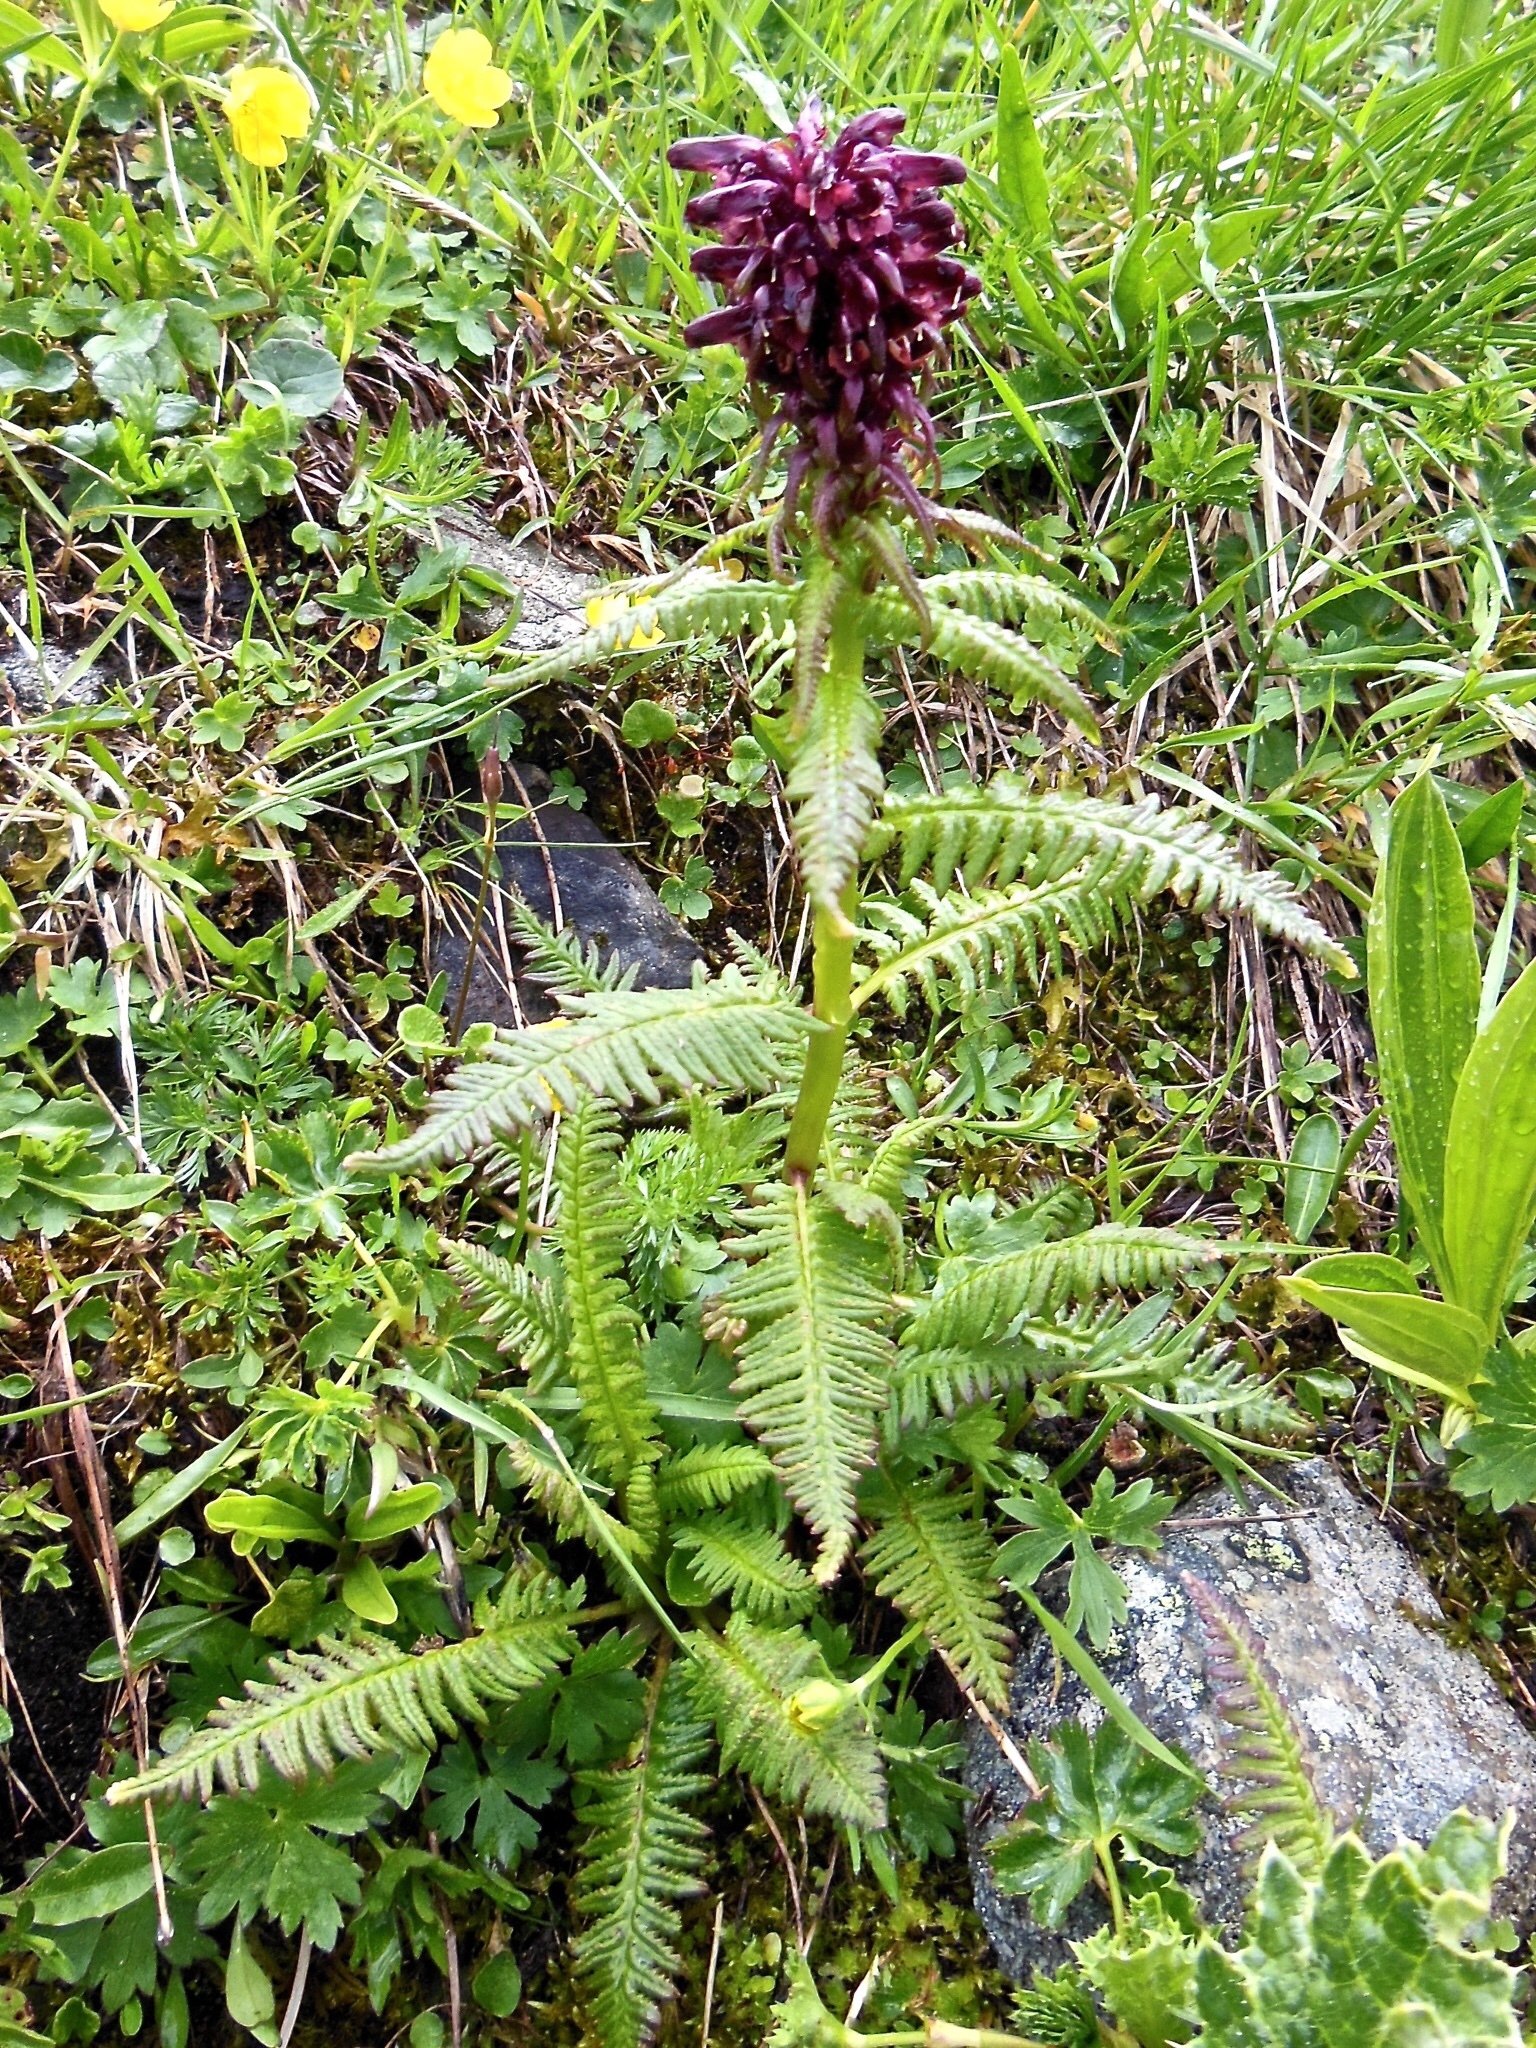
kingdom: Plantae
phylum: Tracheophyta
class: Magnoliopsida
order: Lamiales
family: Orobanchaceae
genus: Pedicularis
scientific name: Pedicularis recutita
